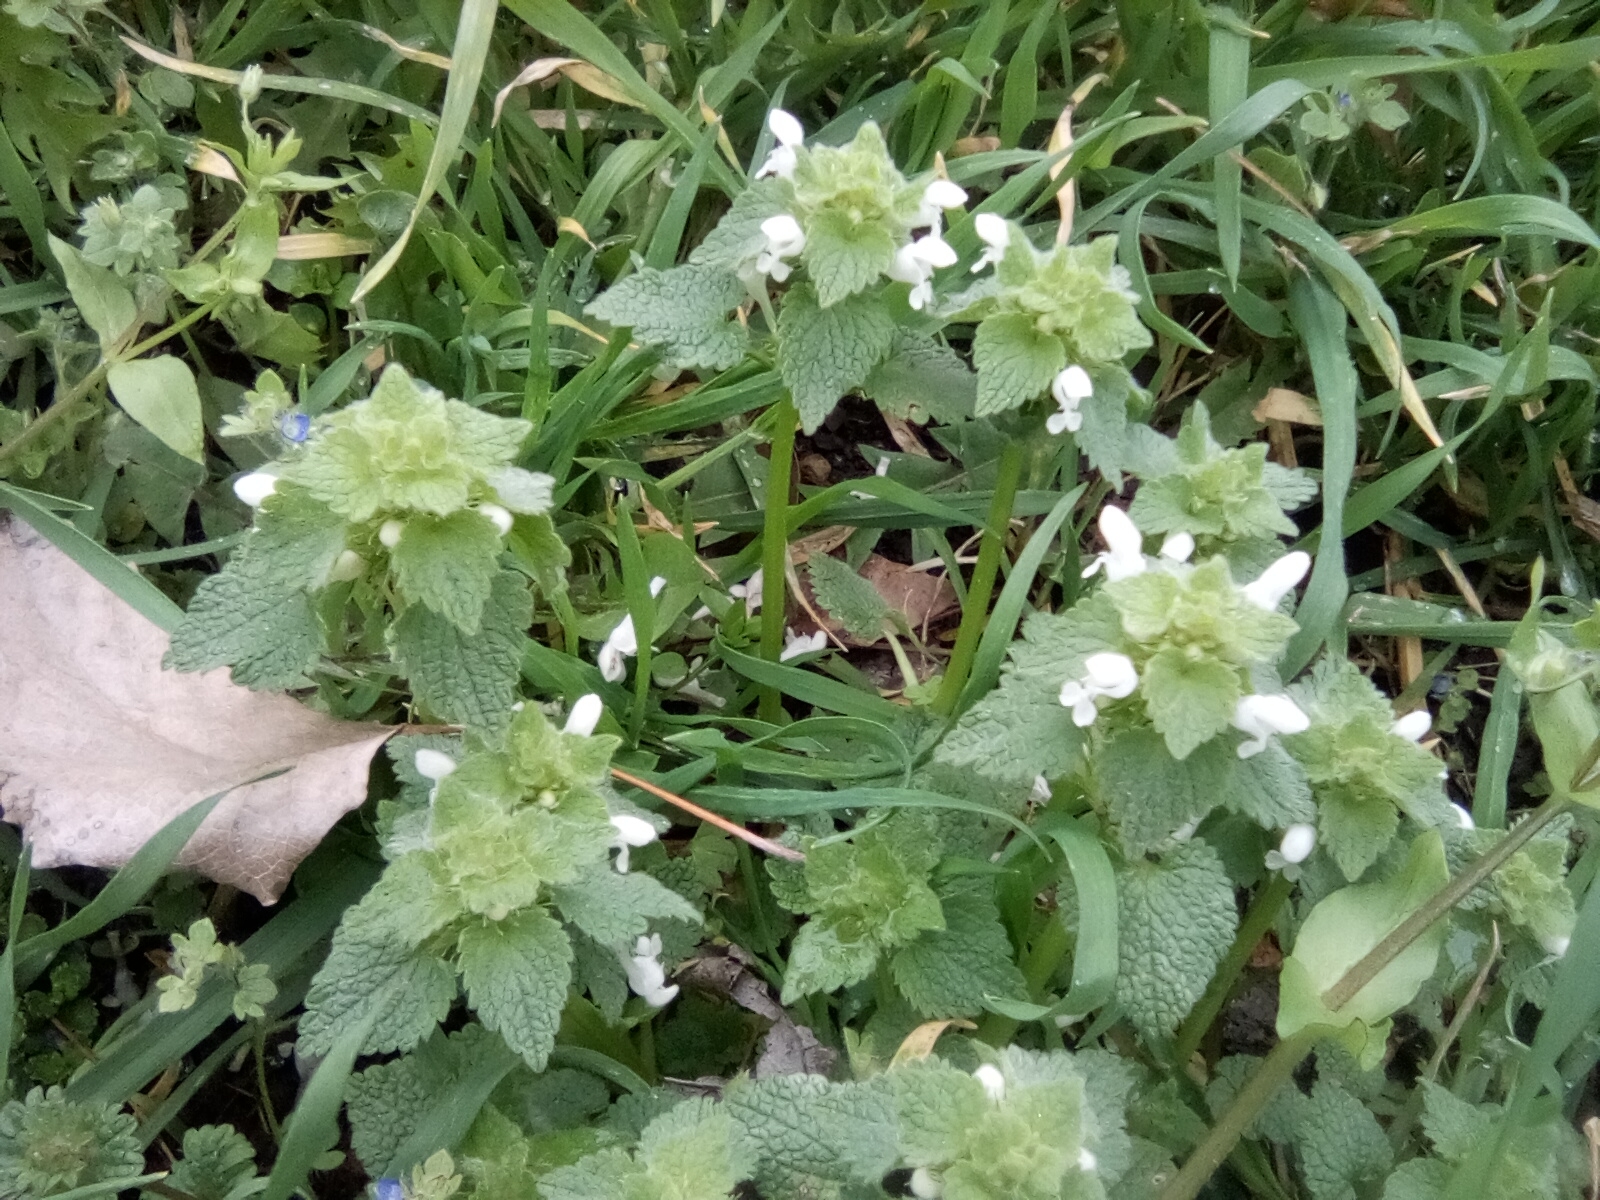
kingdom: Plantae
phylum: Tracheophyta
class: Magnoliopsida
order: Lamiales
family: Lamiaceae
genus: Lamium
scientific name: Lamium purpureum
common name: Red dead-nettle
